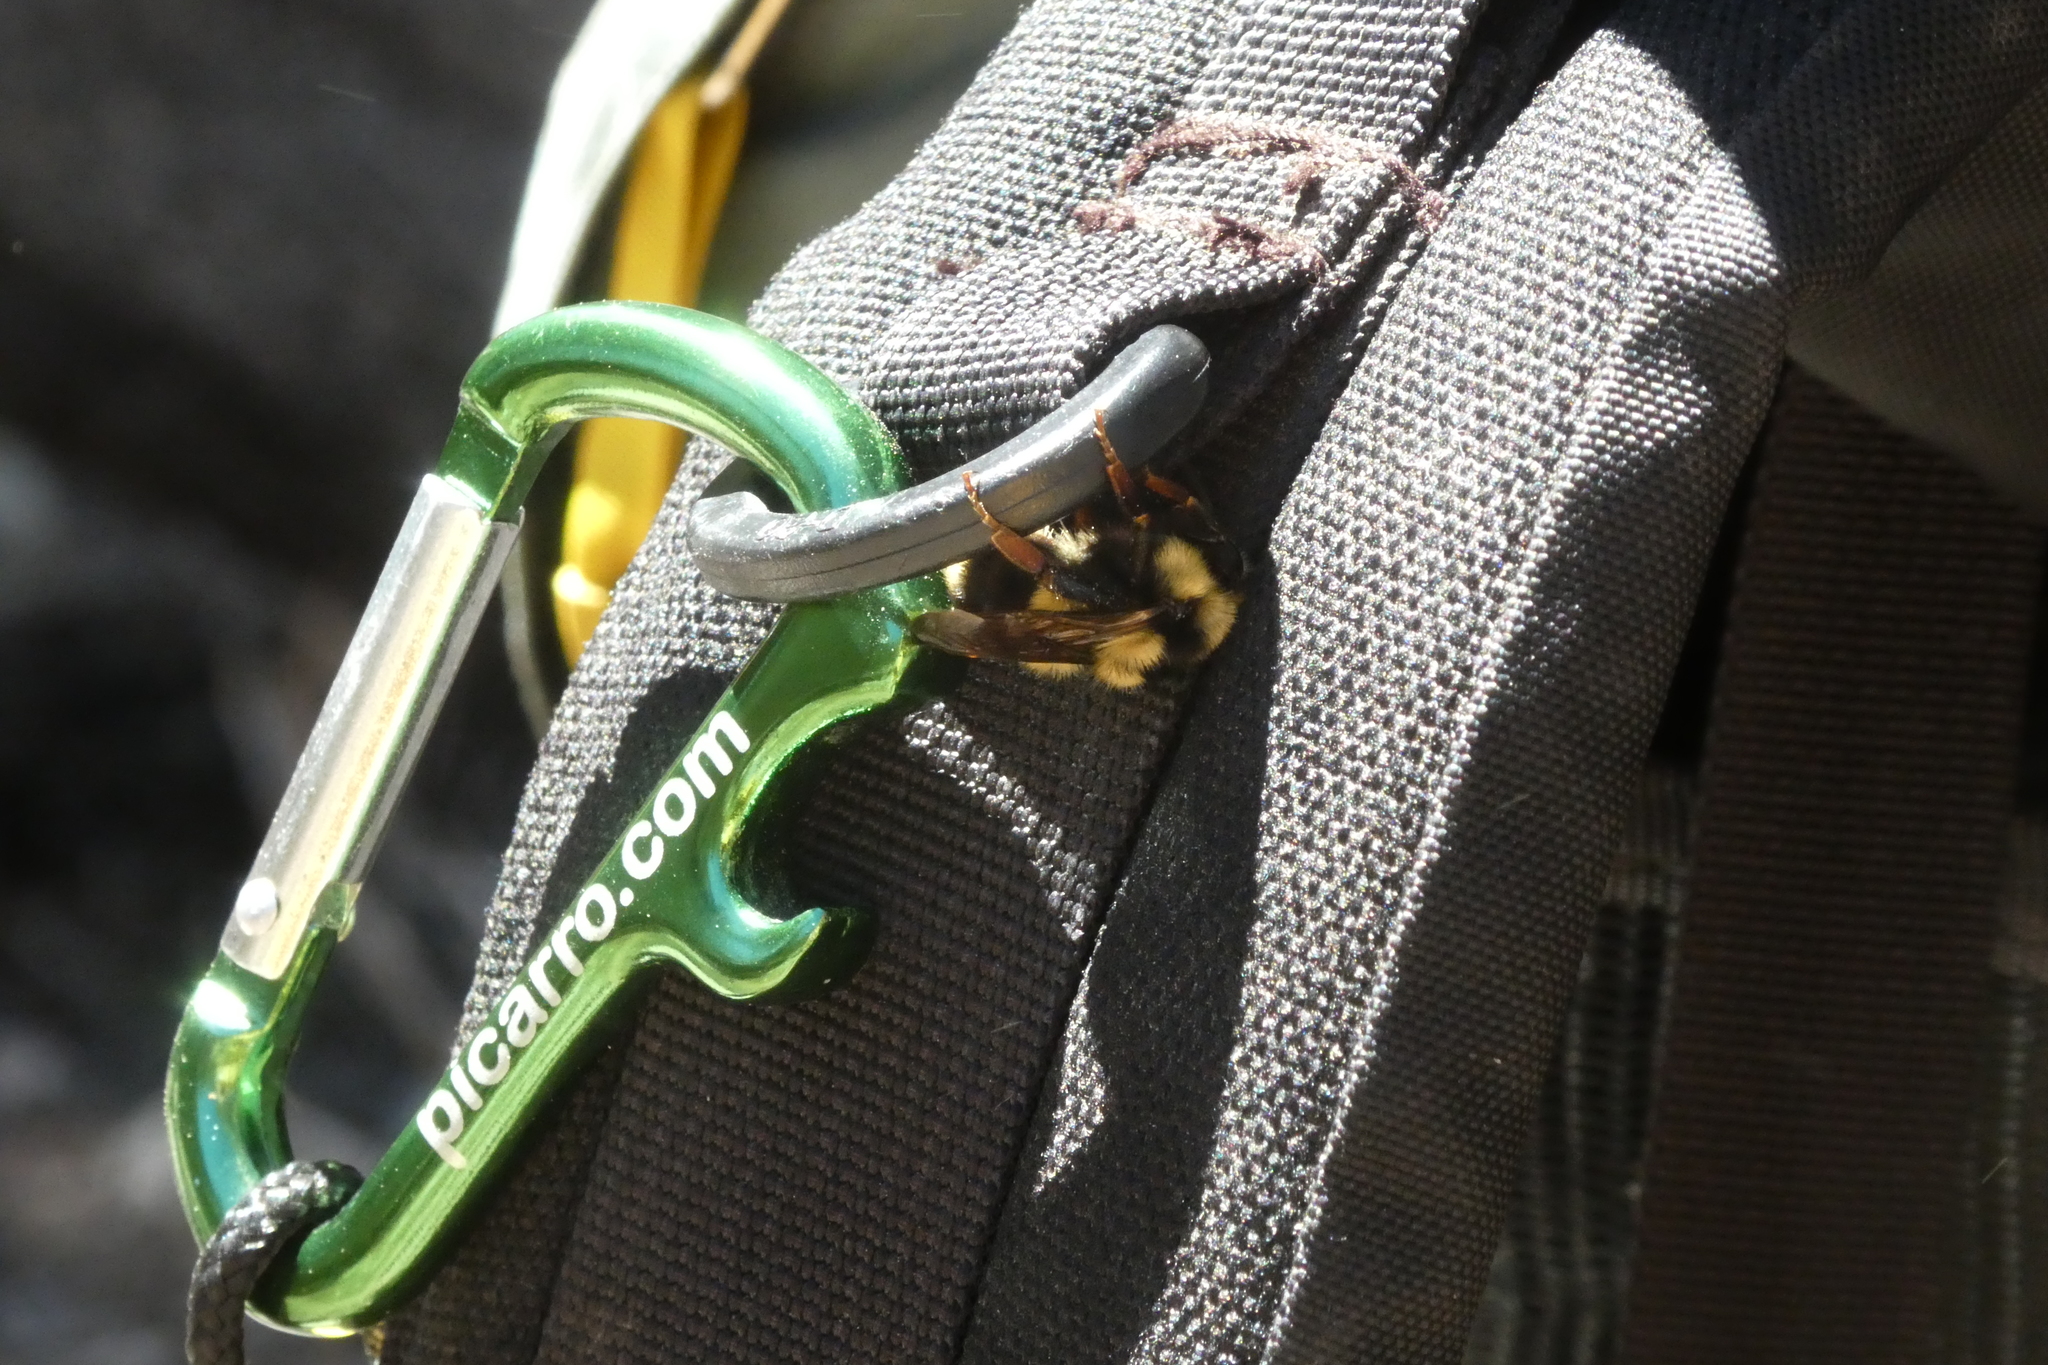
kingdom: Animalia
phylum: Arthropoda
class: Insecta
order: Hymenoptera
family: Apidae
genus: Bombus
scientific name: Bombus melanopygus
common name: Black tail bumble bee
